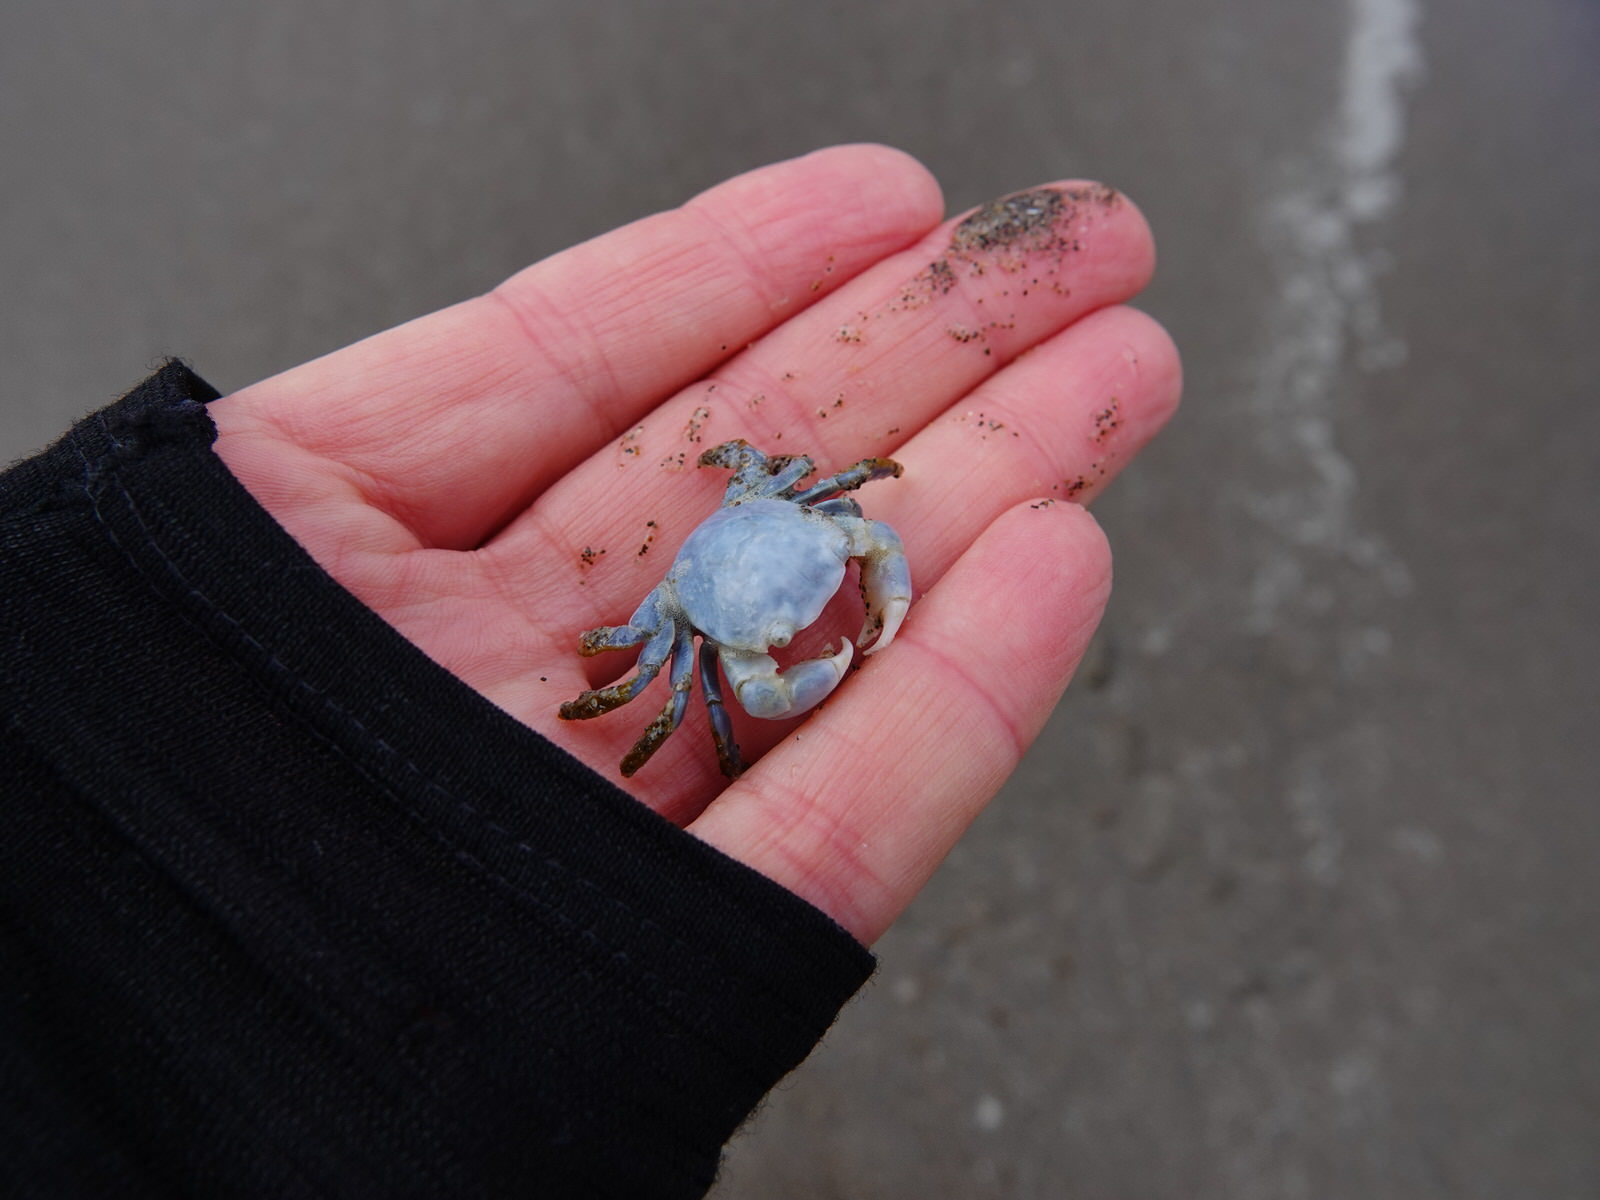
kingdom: Animalia
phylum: Arthropoda
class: Malacostraca
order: Decapoda
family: Grapsidae
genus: Planes
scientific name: Planes minutus
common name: Gulf weed crab
